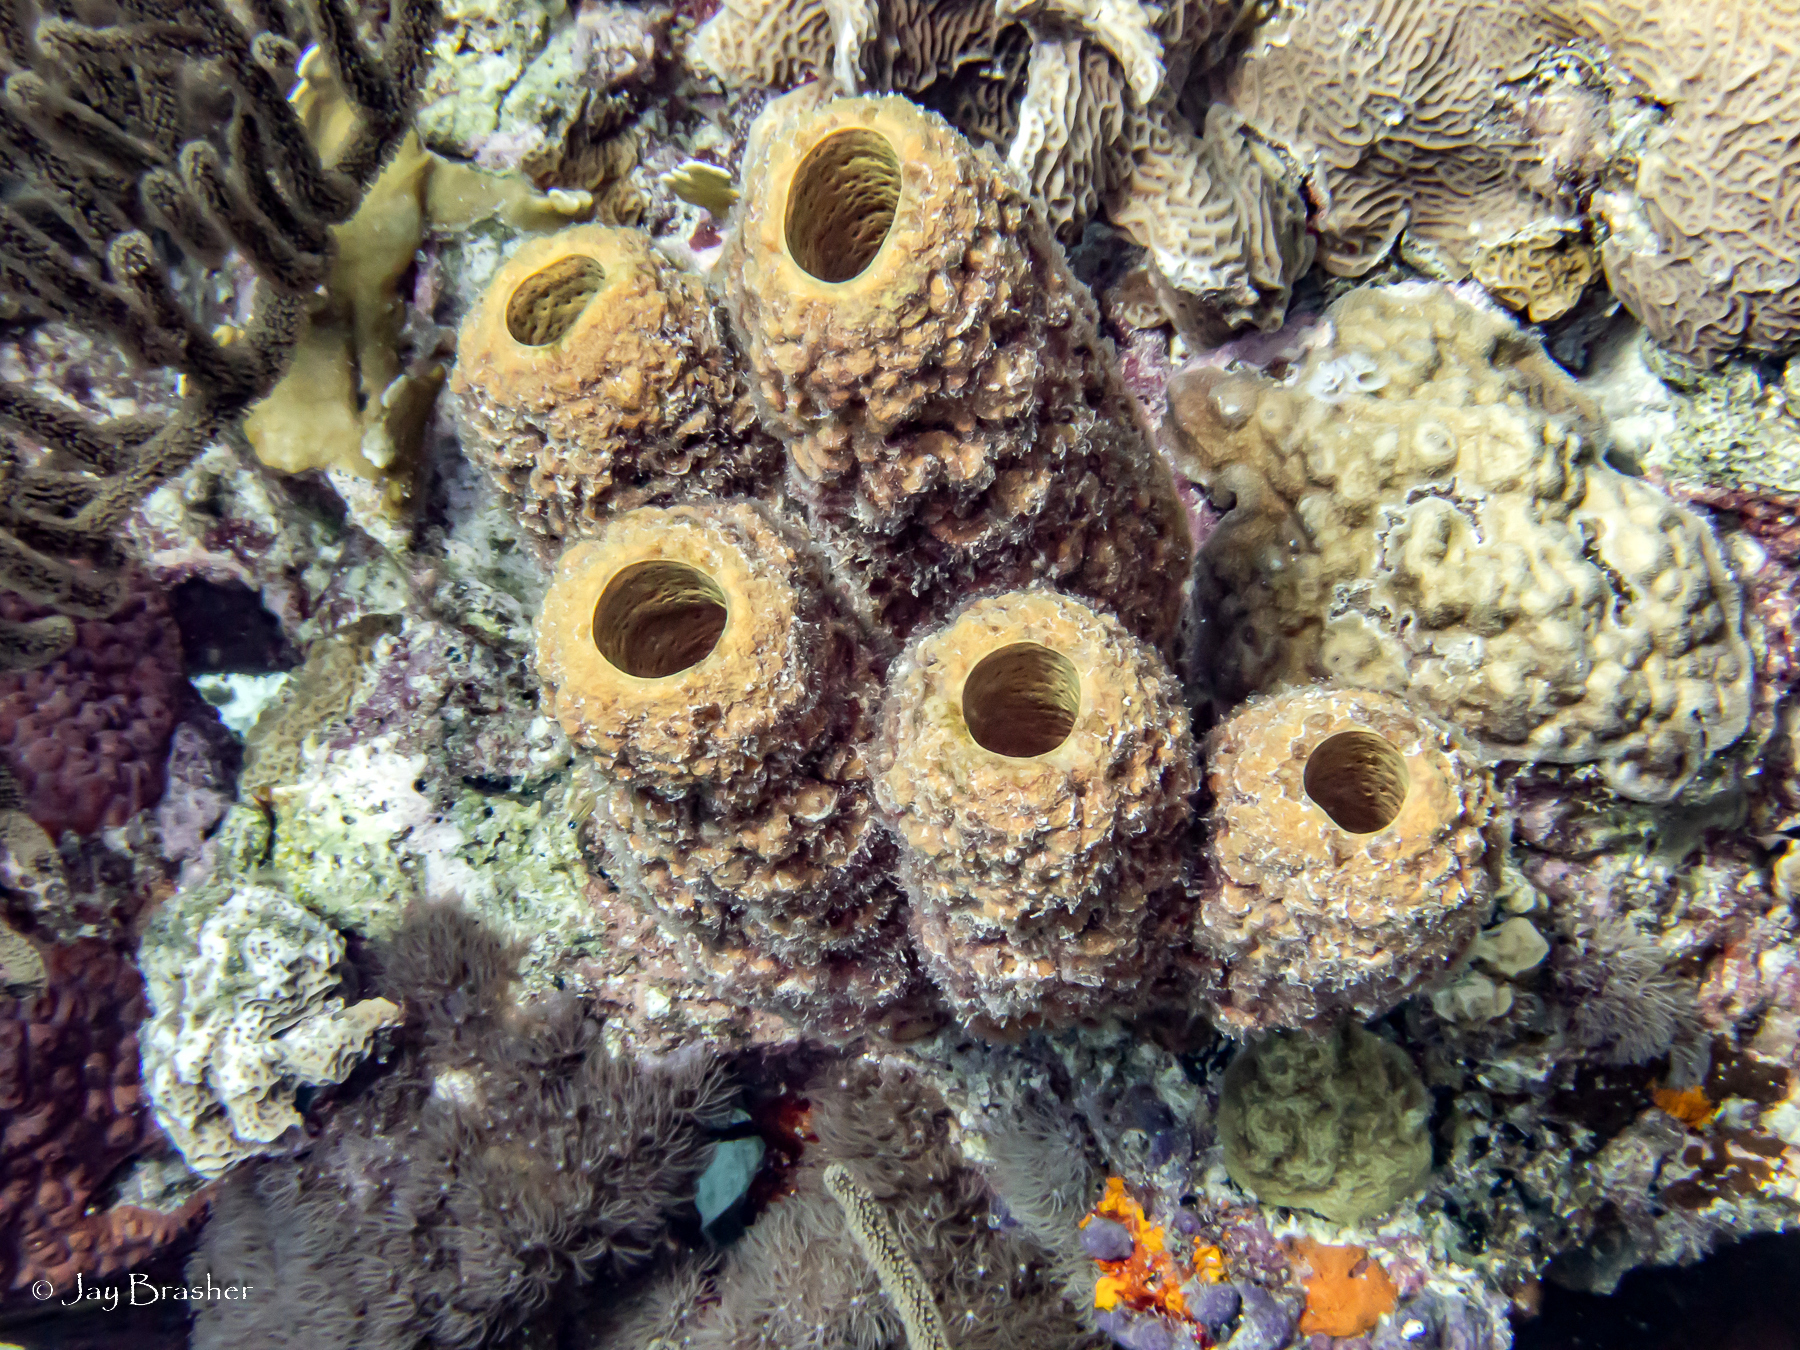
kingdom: Animalia
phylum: Cnidaria
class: Anthozoa
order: Scleractinia
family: Poritidae
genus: Porites
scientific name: Porites astreoides
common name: Mustard hill coral
